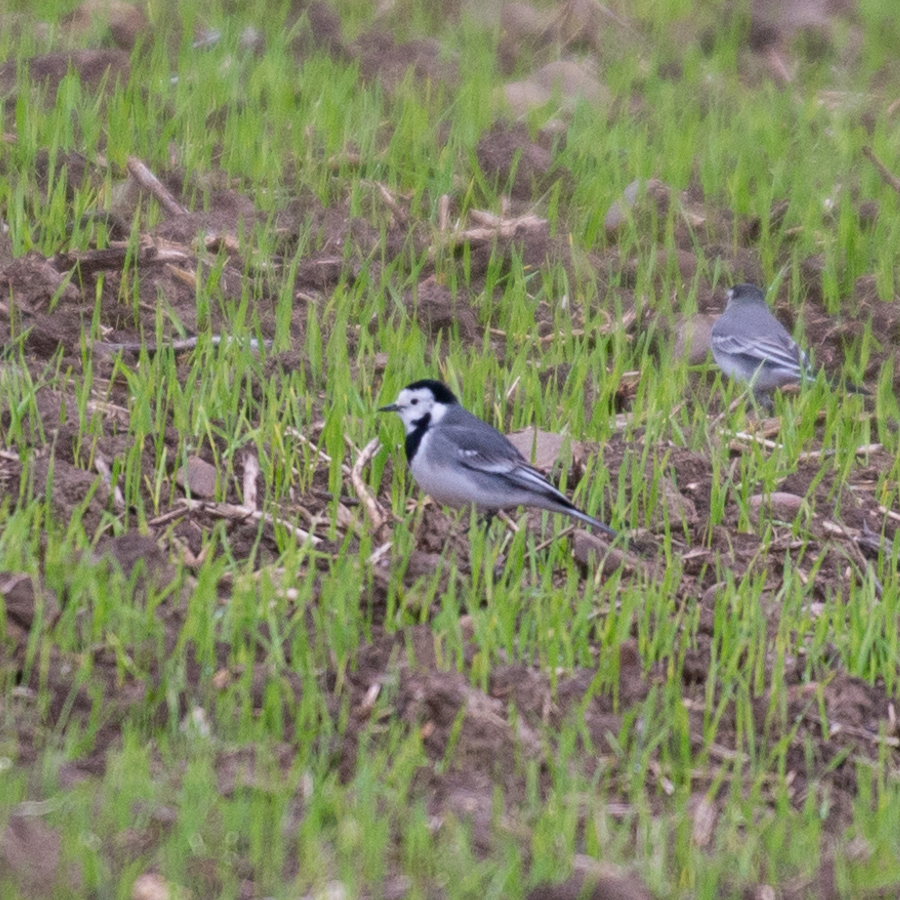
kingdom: Animalia
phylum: Chordata
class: Aves
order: Passeriformes
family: Motacillidae
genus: Motacilla
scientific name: Motacilla alba
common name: White wagtail
